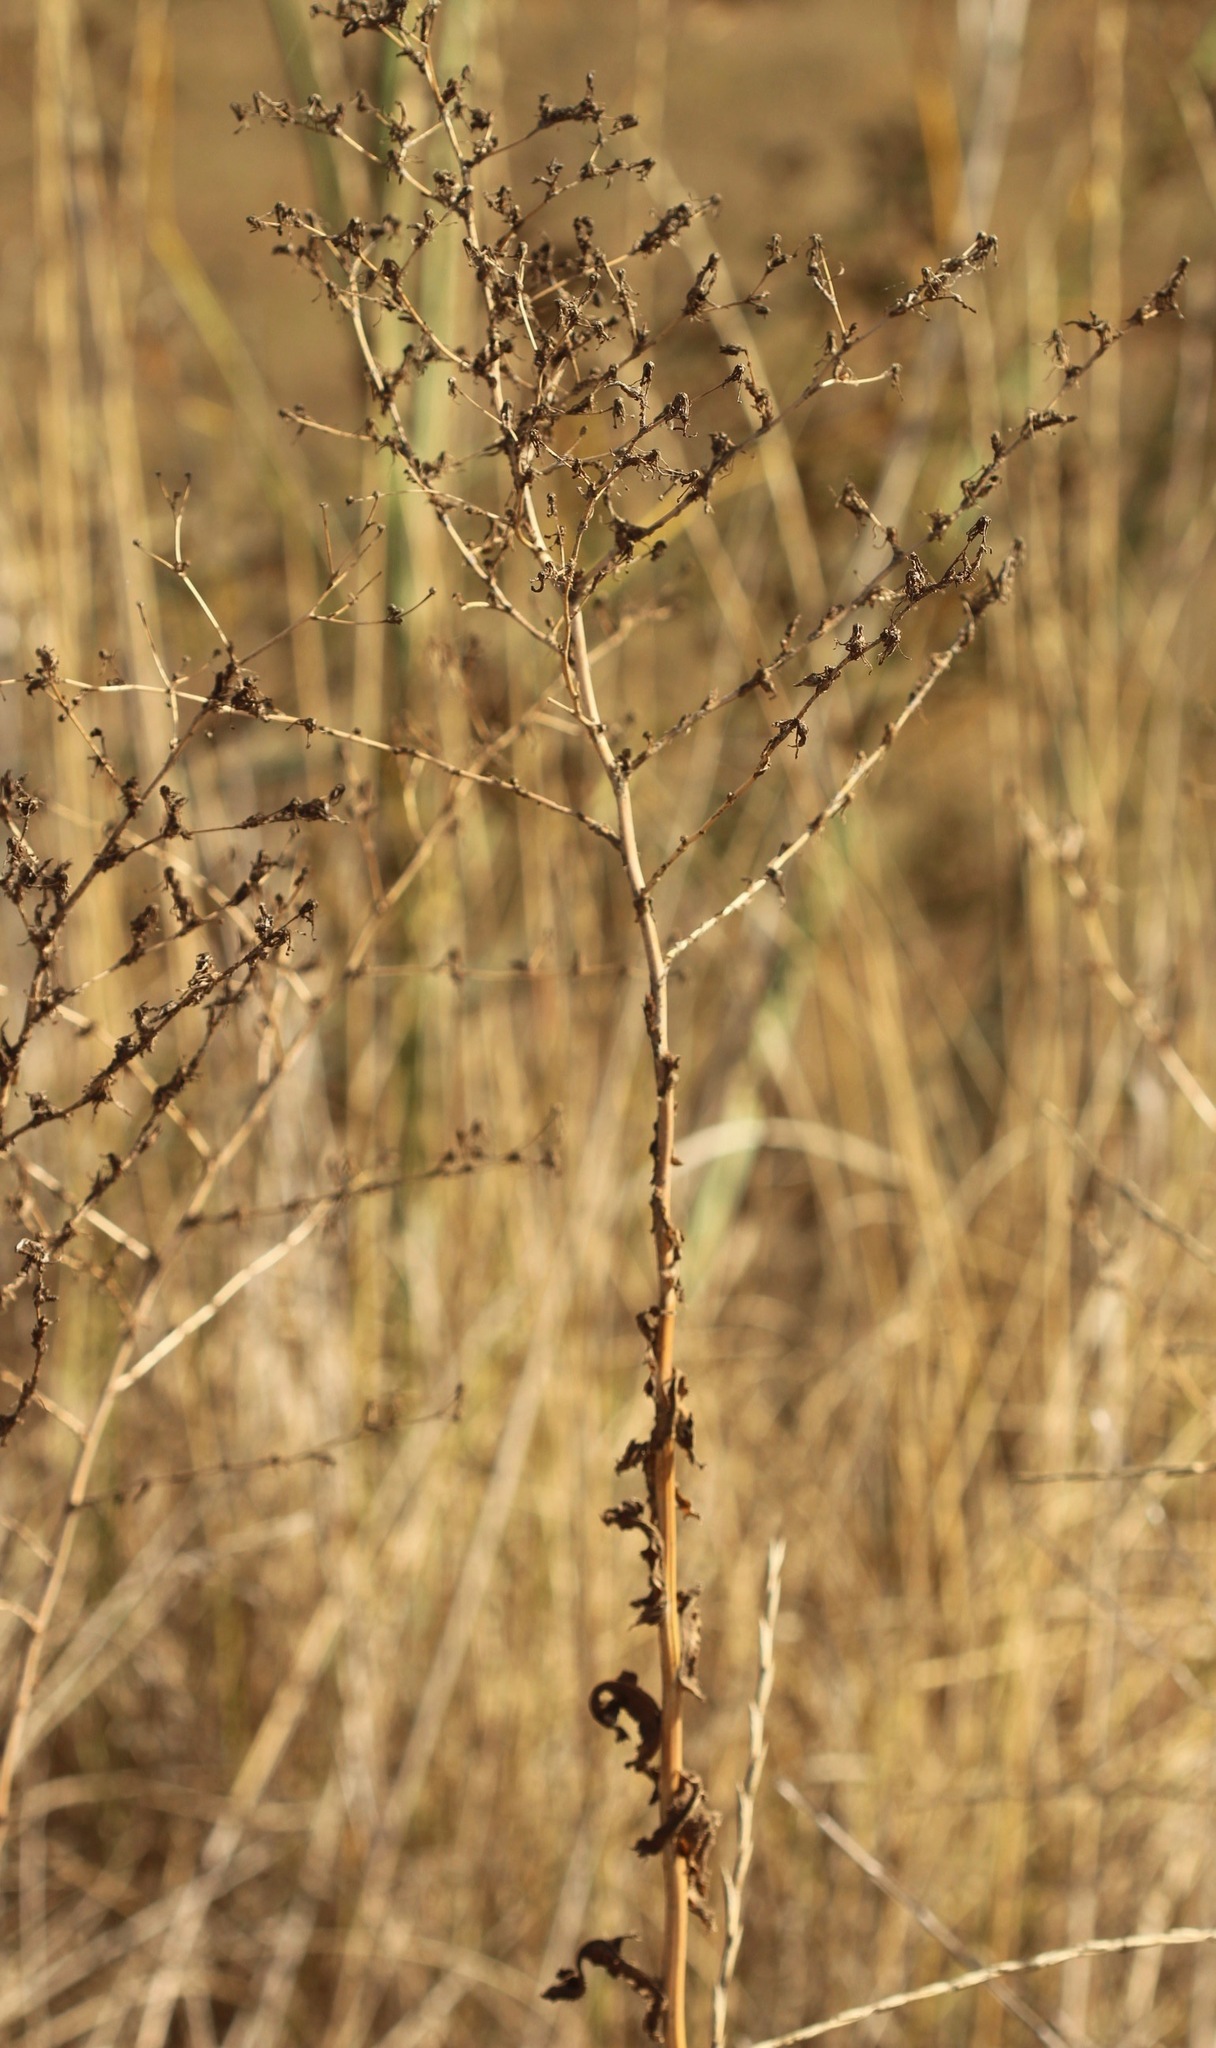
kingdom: Plantae
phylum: Tracheophyta
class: Magnoliopsida
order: Asterales
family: Asteraceae
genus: Lactuca
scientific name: Lactuca serriola
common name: Prickly lettuce
